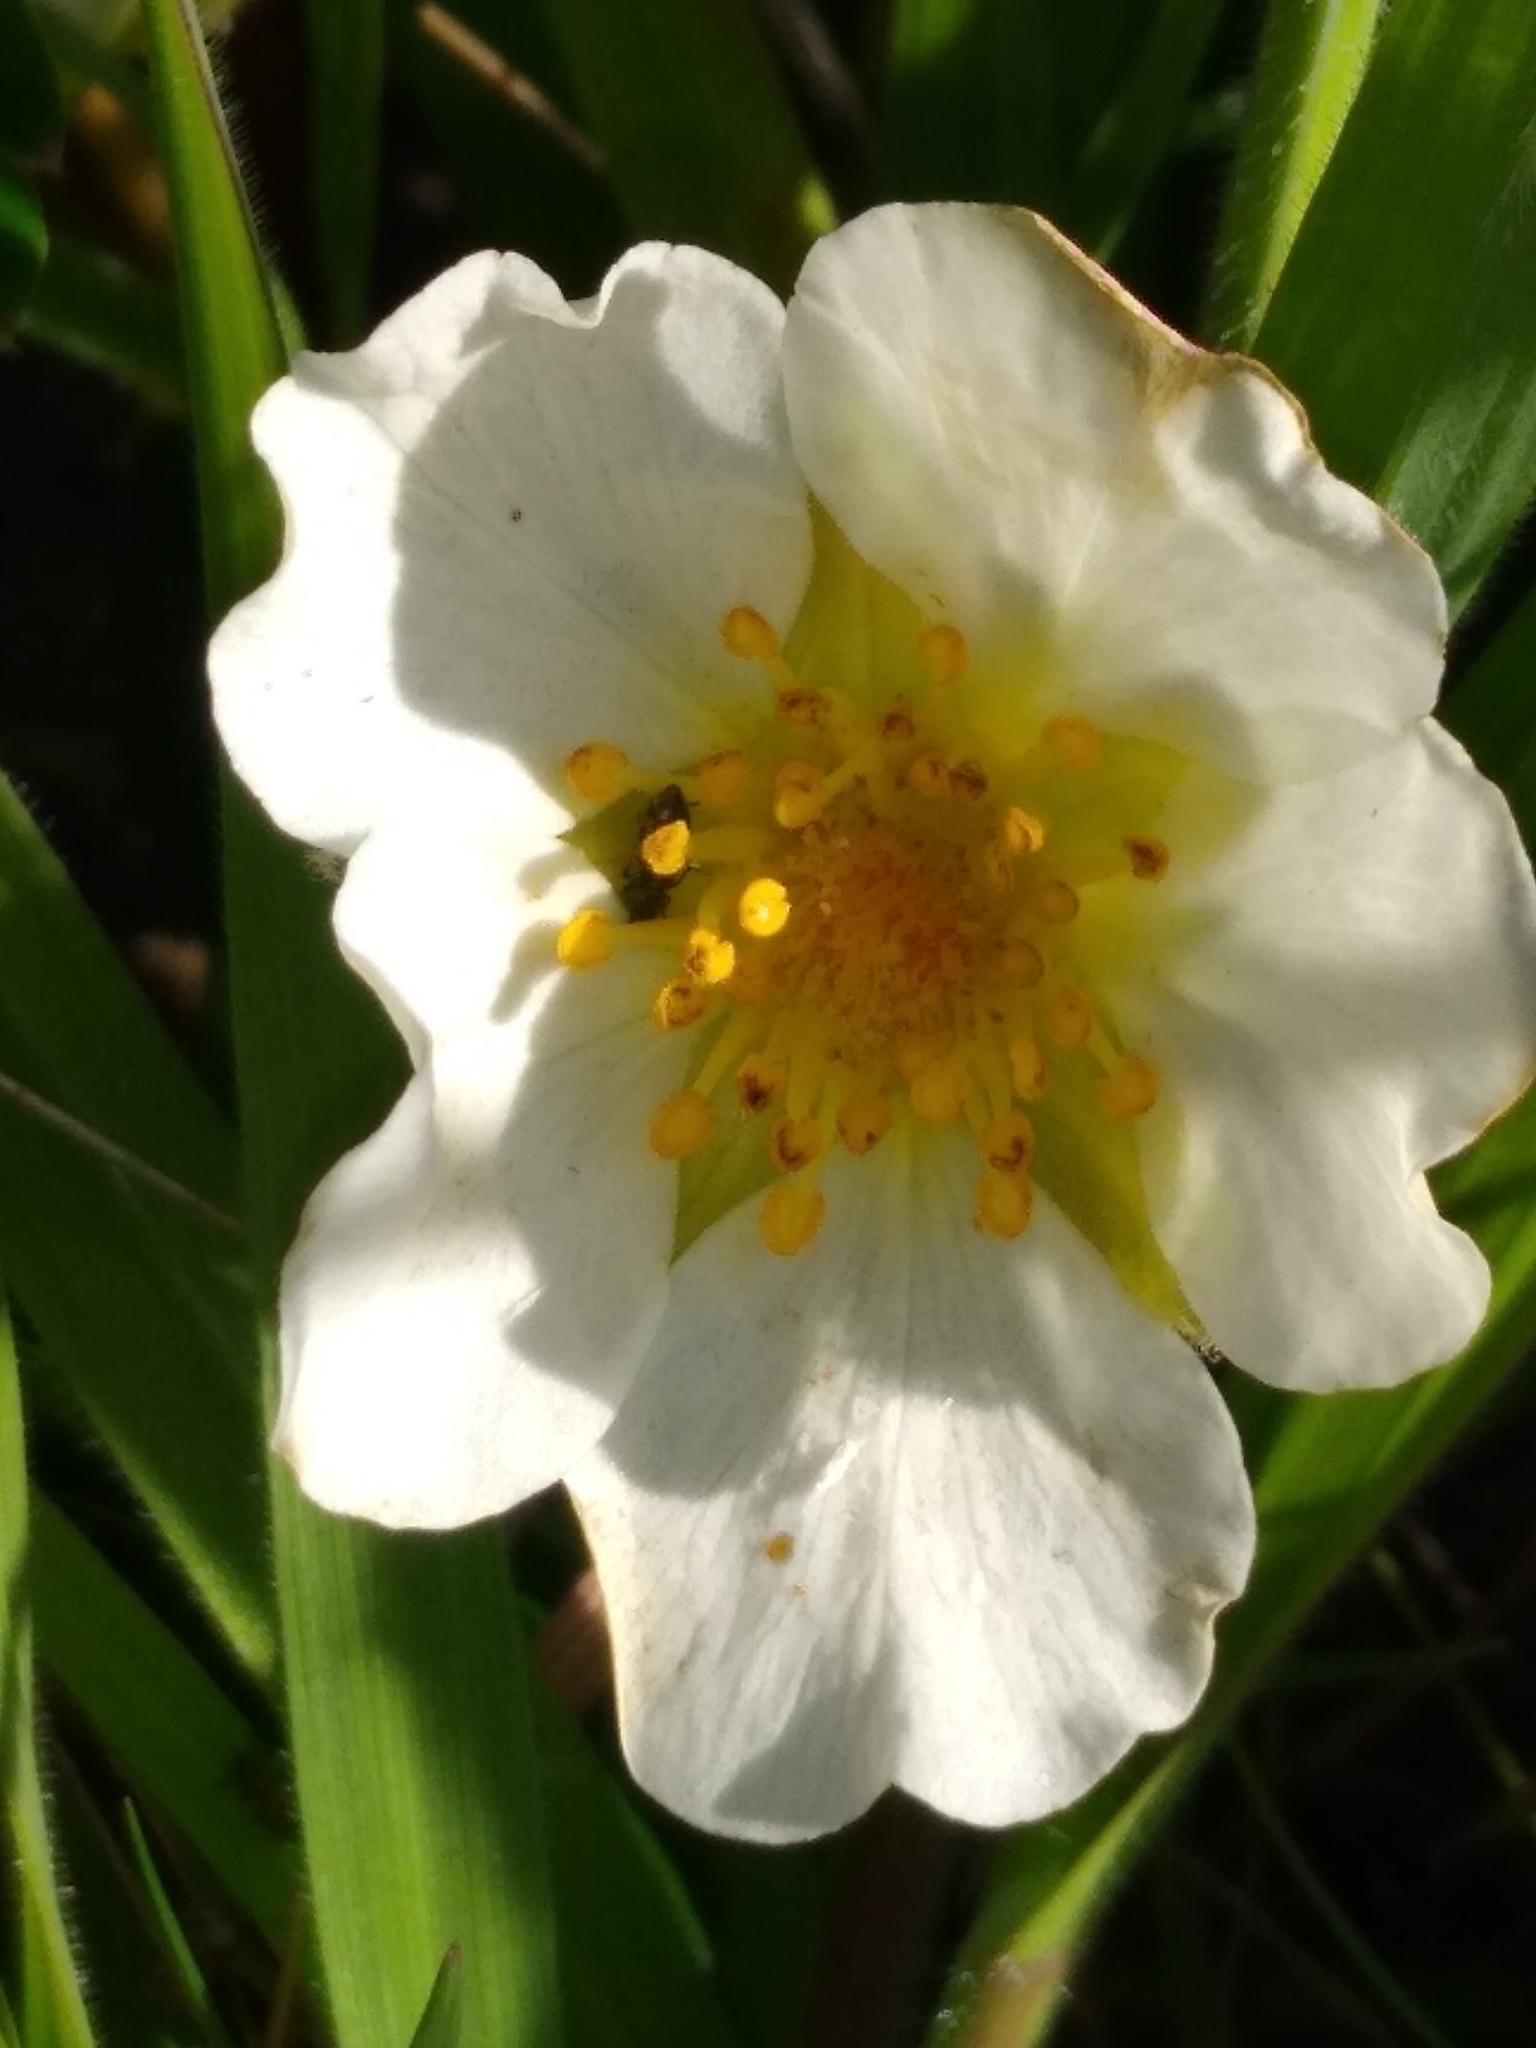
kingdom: Plantae
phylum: Tracheophyta
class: Magnoliopsida
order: Rosales
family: Rosaceae
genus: Fragaria
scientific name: Fragaria chiloensis
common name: Beach strawberry
